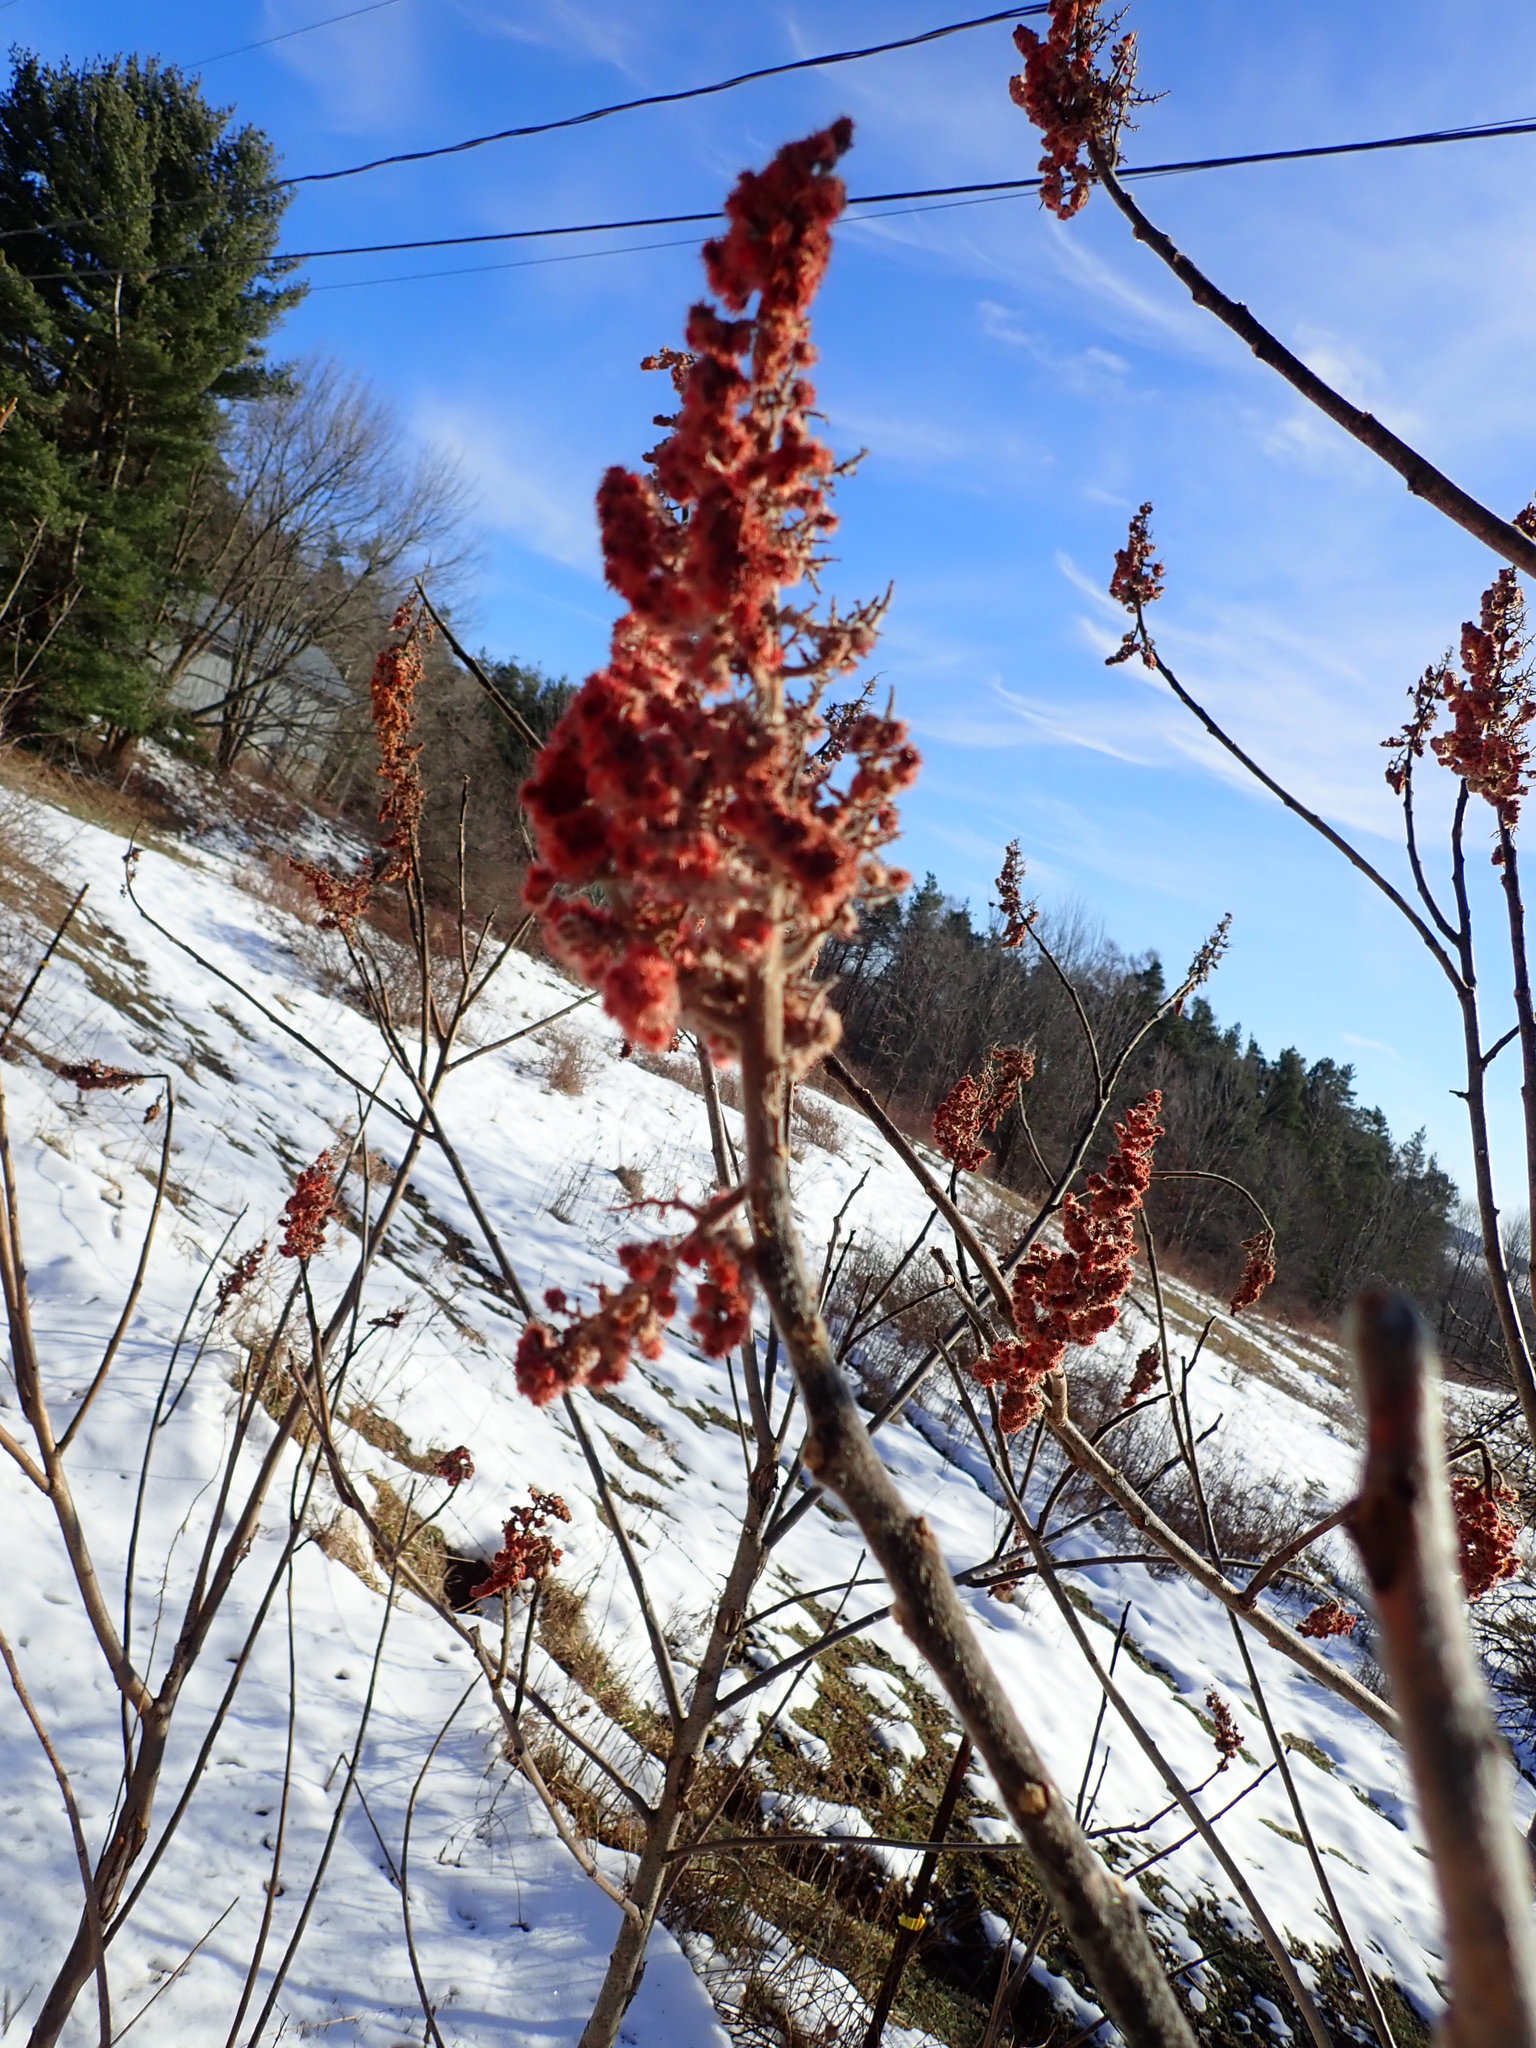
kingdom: Plantae
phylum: Tracheophyta
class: Magnoliopsida
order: Sapindales
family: Anacardiaceae
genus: Rhus
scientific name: Rhus typhina
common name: Staghorn sumac
